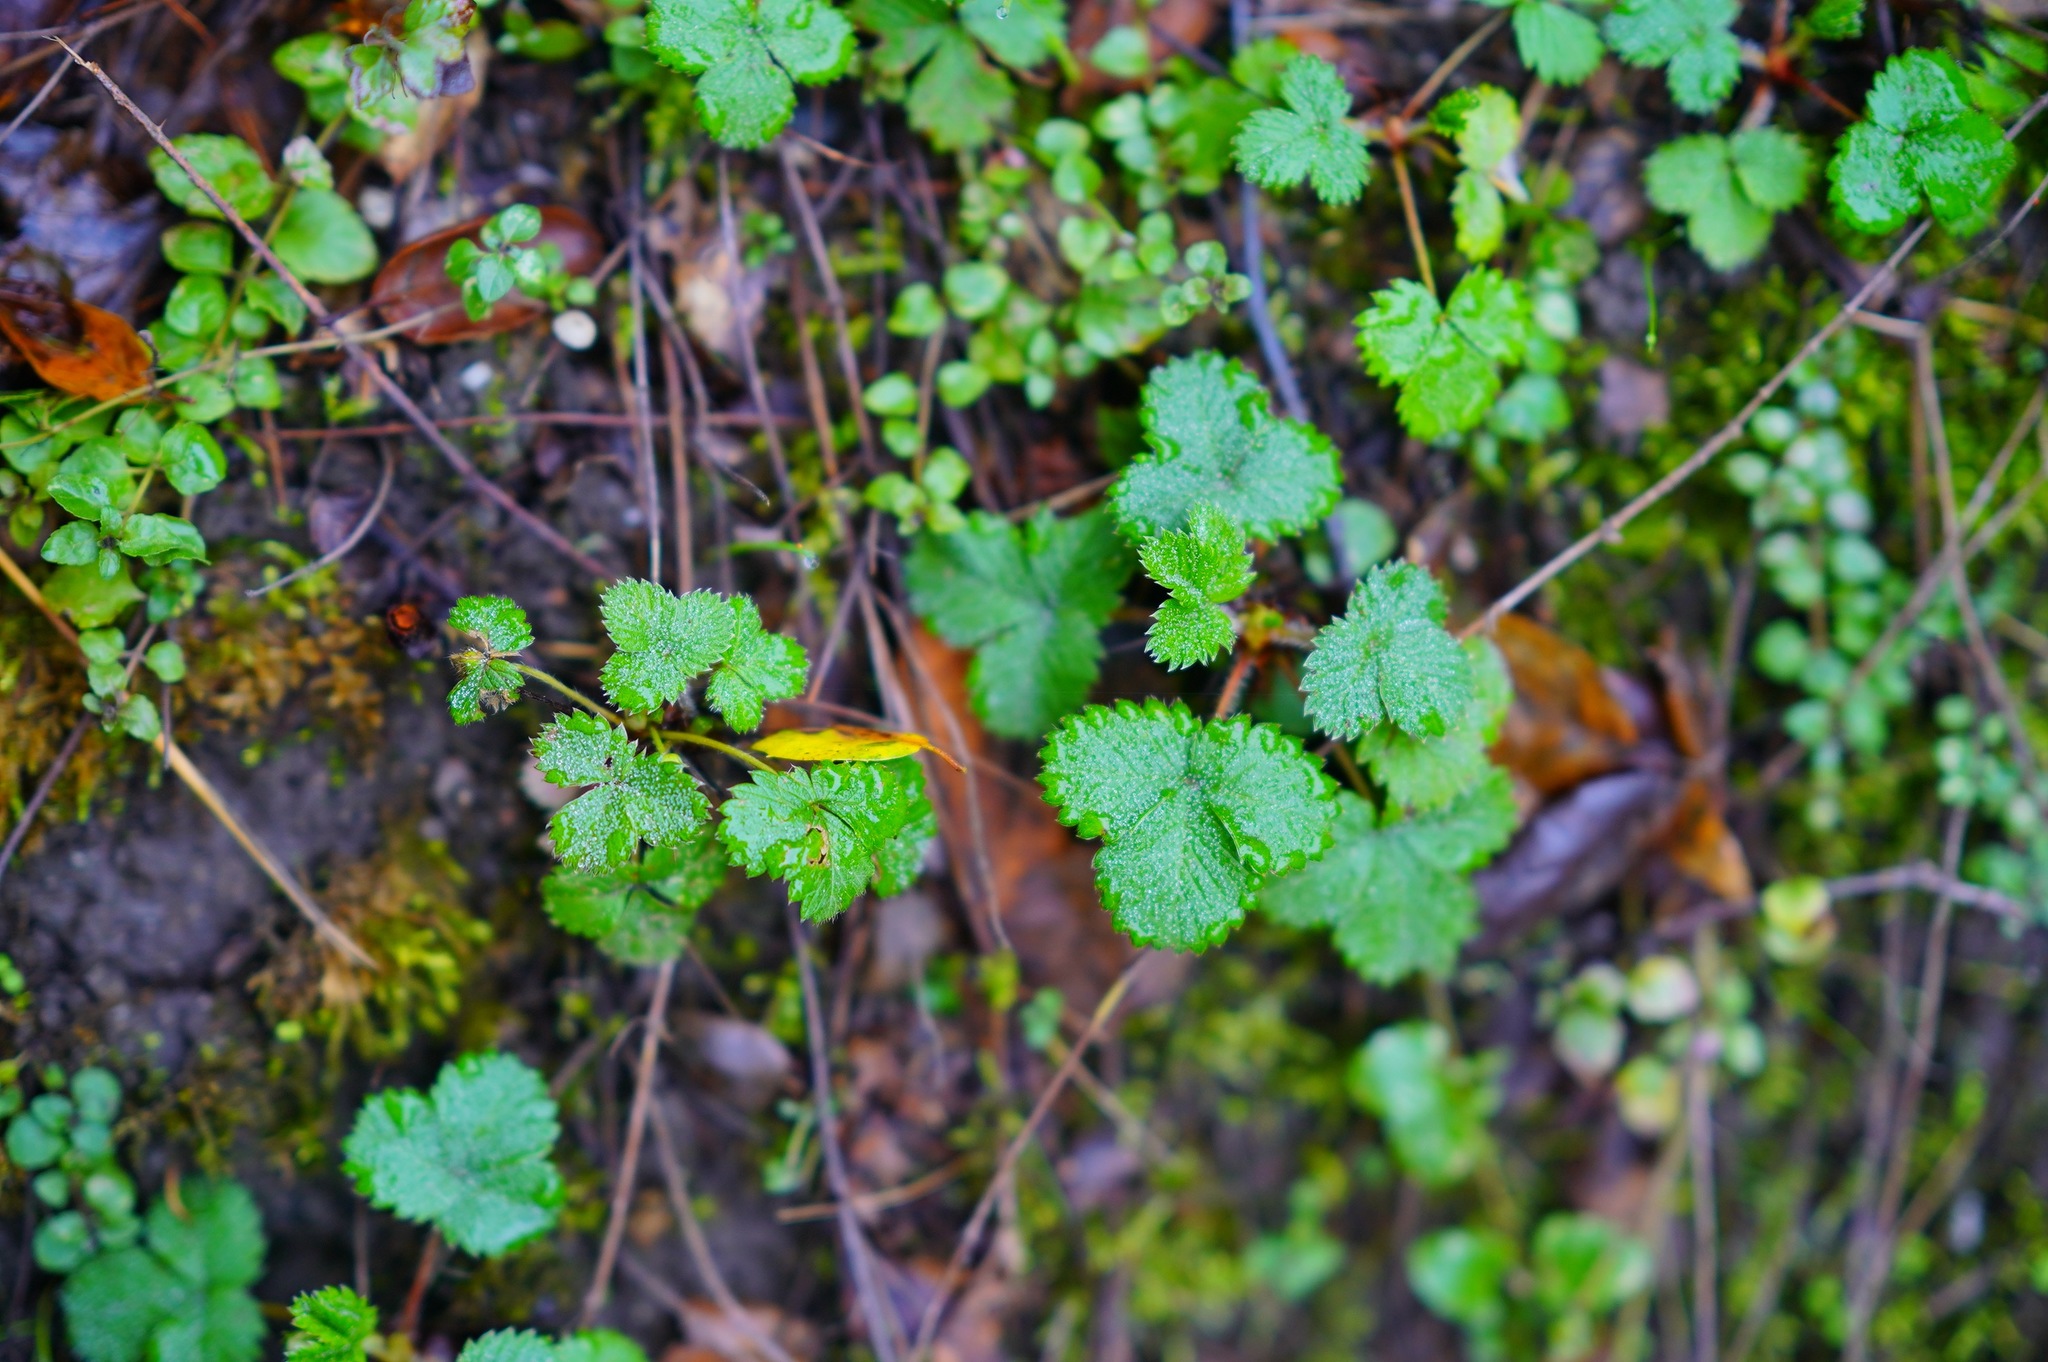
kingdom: Plantae
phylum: Tracheophyta
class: Magnoliopsida
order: Rosales
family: Rosaceae
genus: Fragaria
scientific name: Fragaria vesca
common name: Wild strawberry
